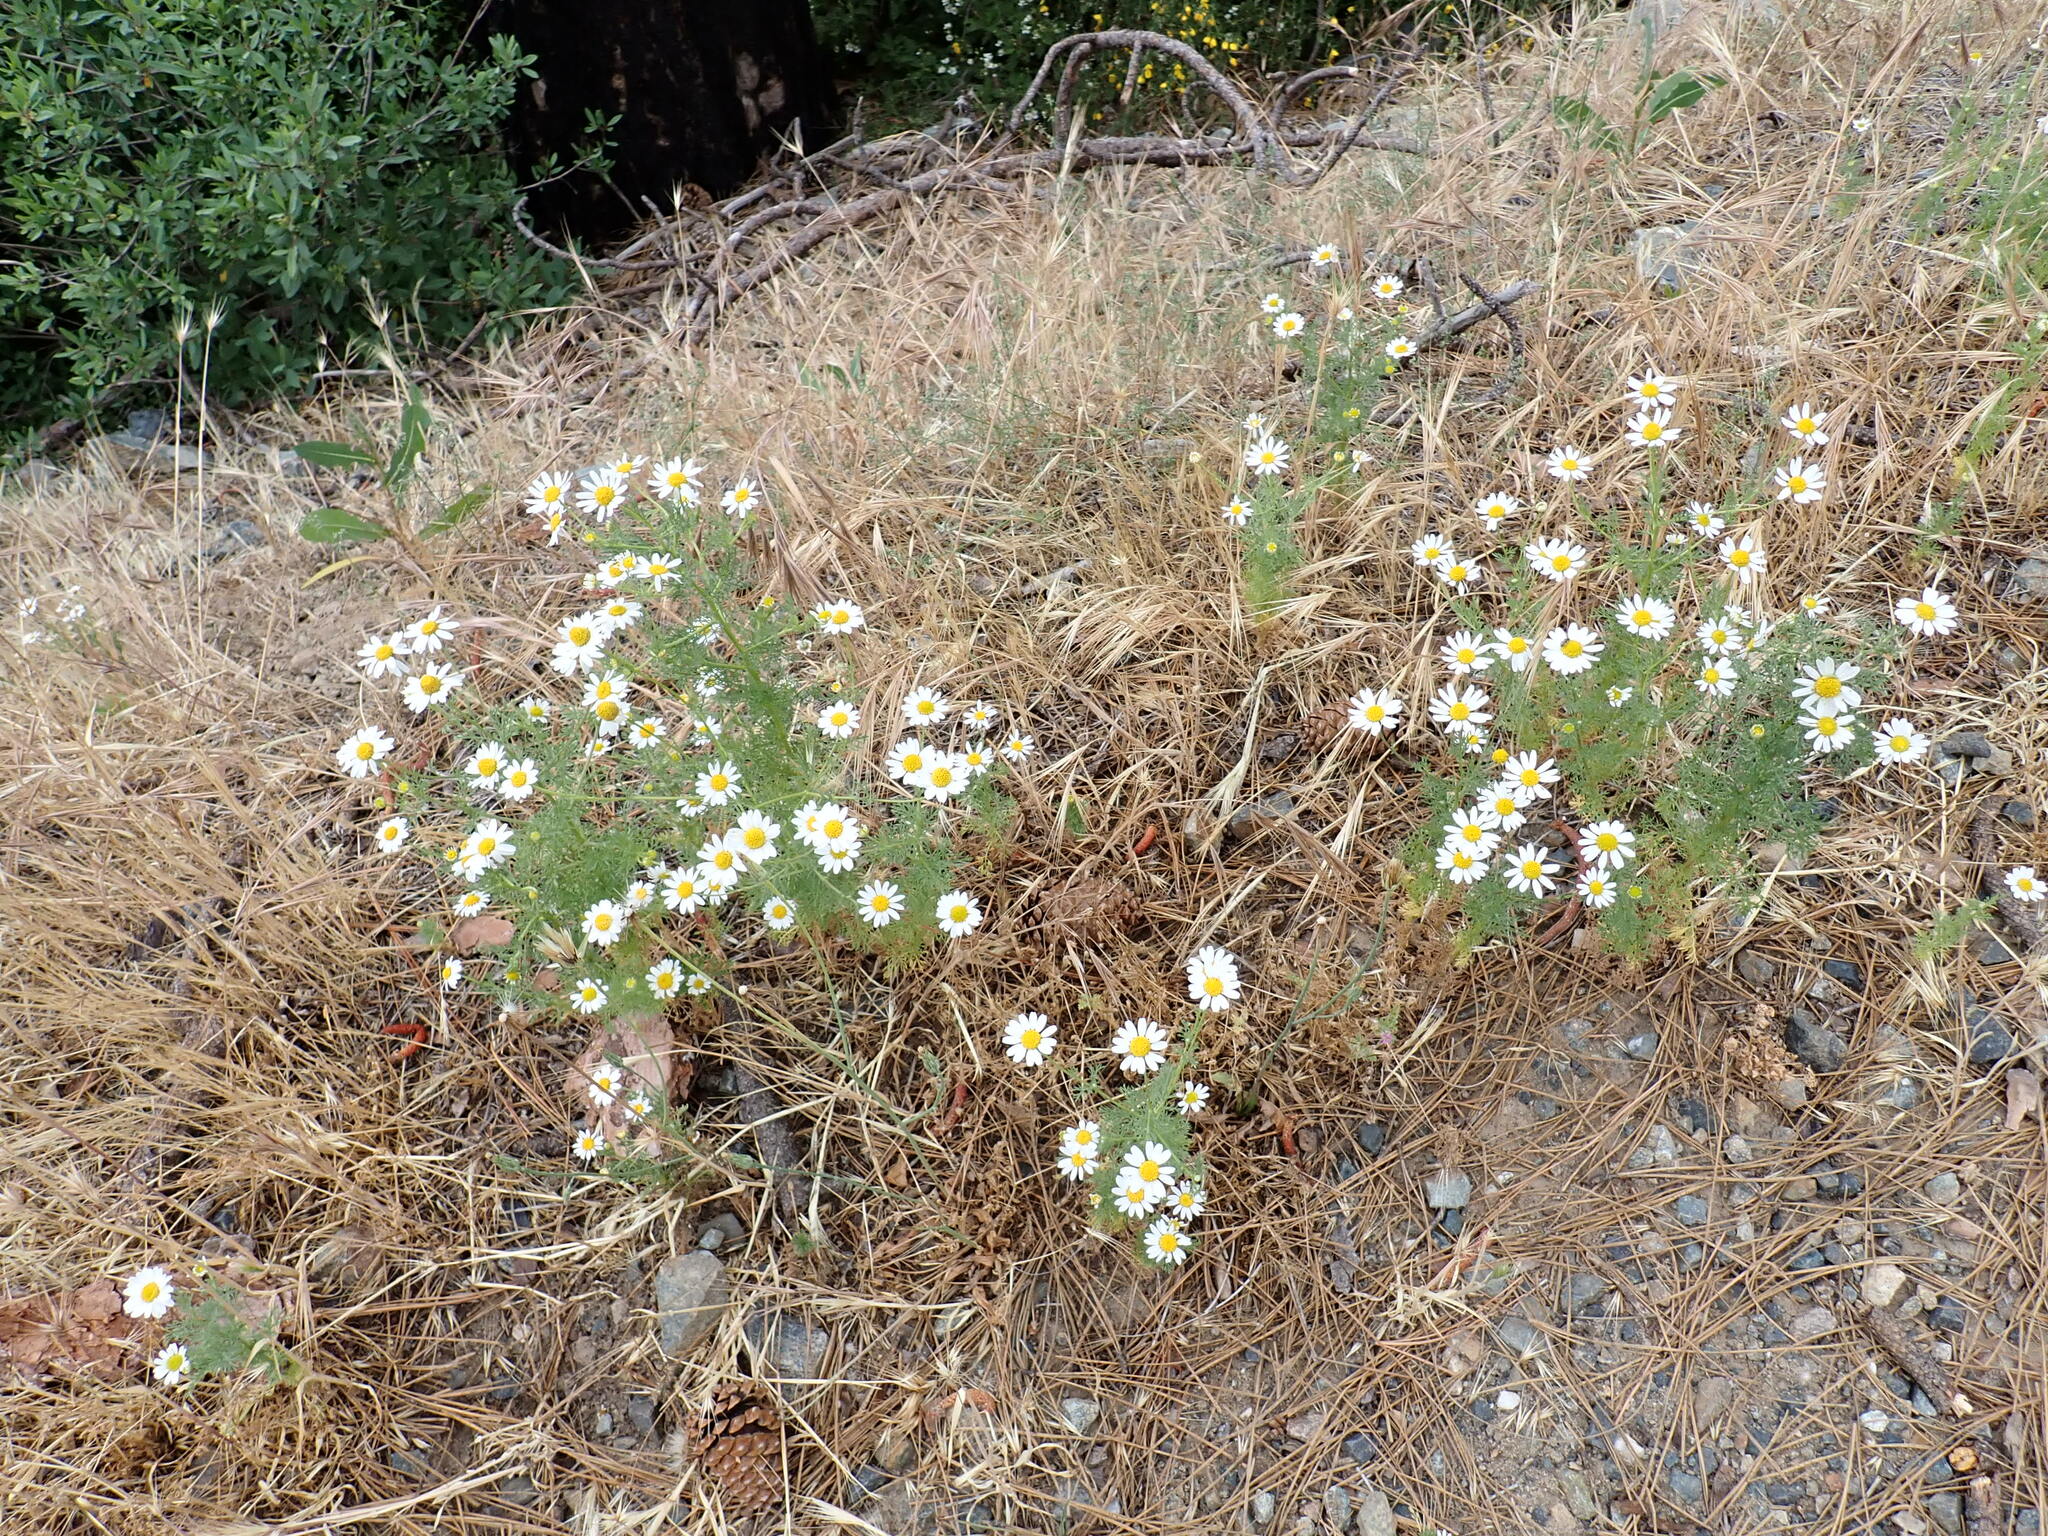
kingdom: Plantae
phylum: Tracheophyta
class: Magnoliopsida
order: Asterales
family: Asteraceae
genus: Anthemis
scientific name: Anthemis cotula
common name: Stinking chamomile
